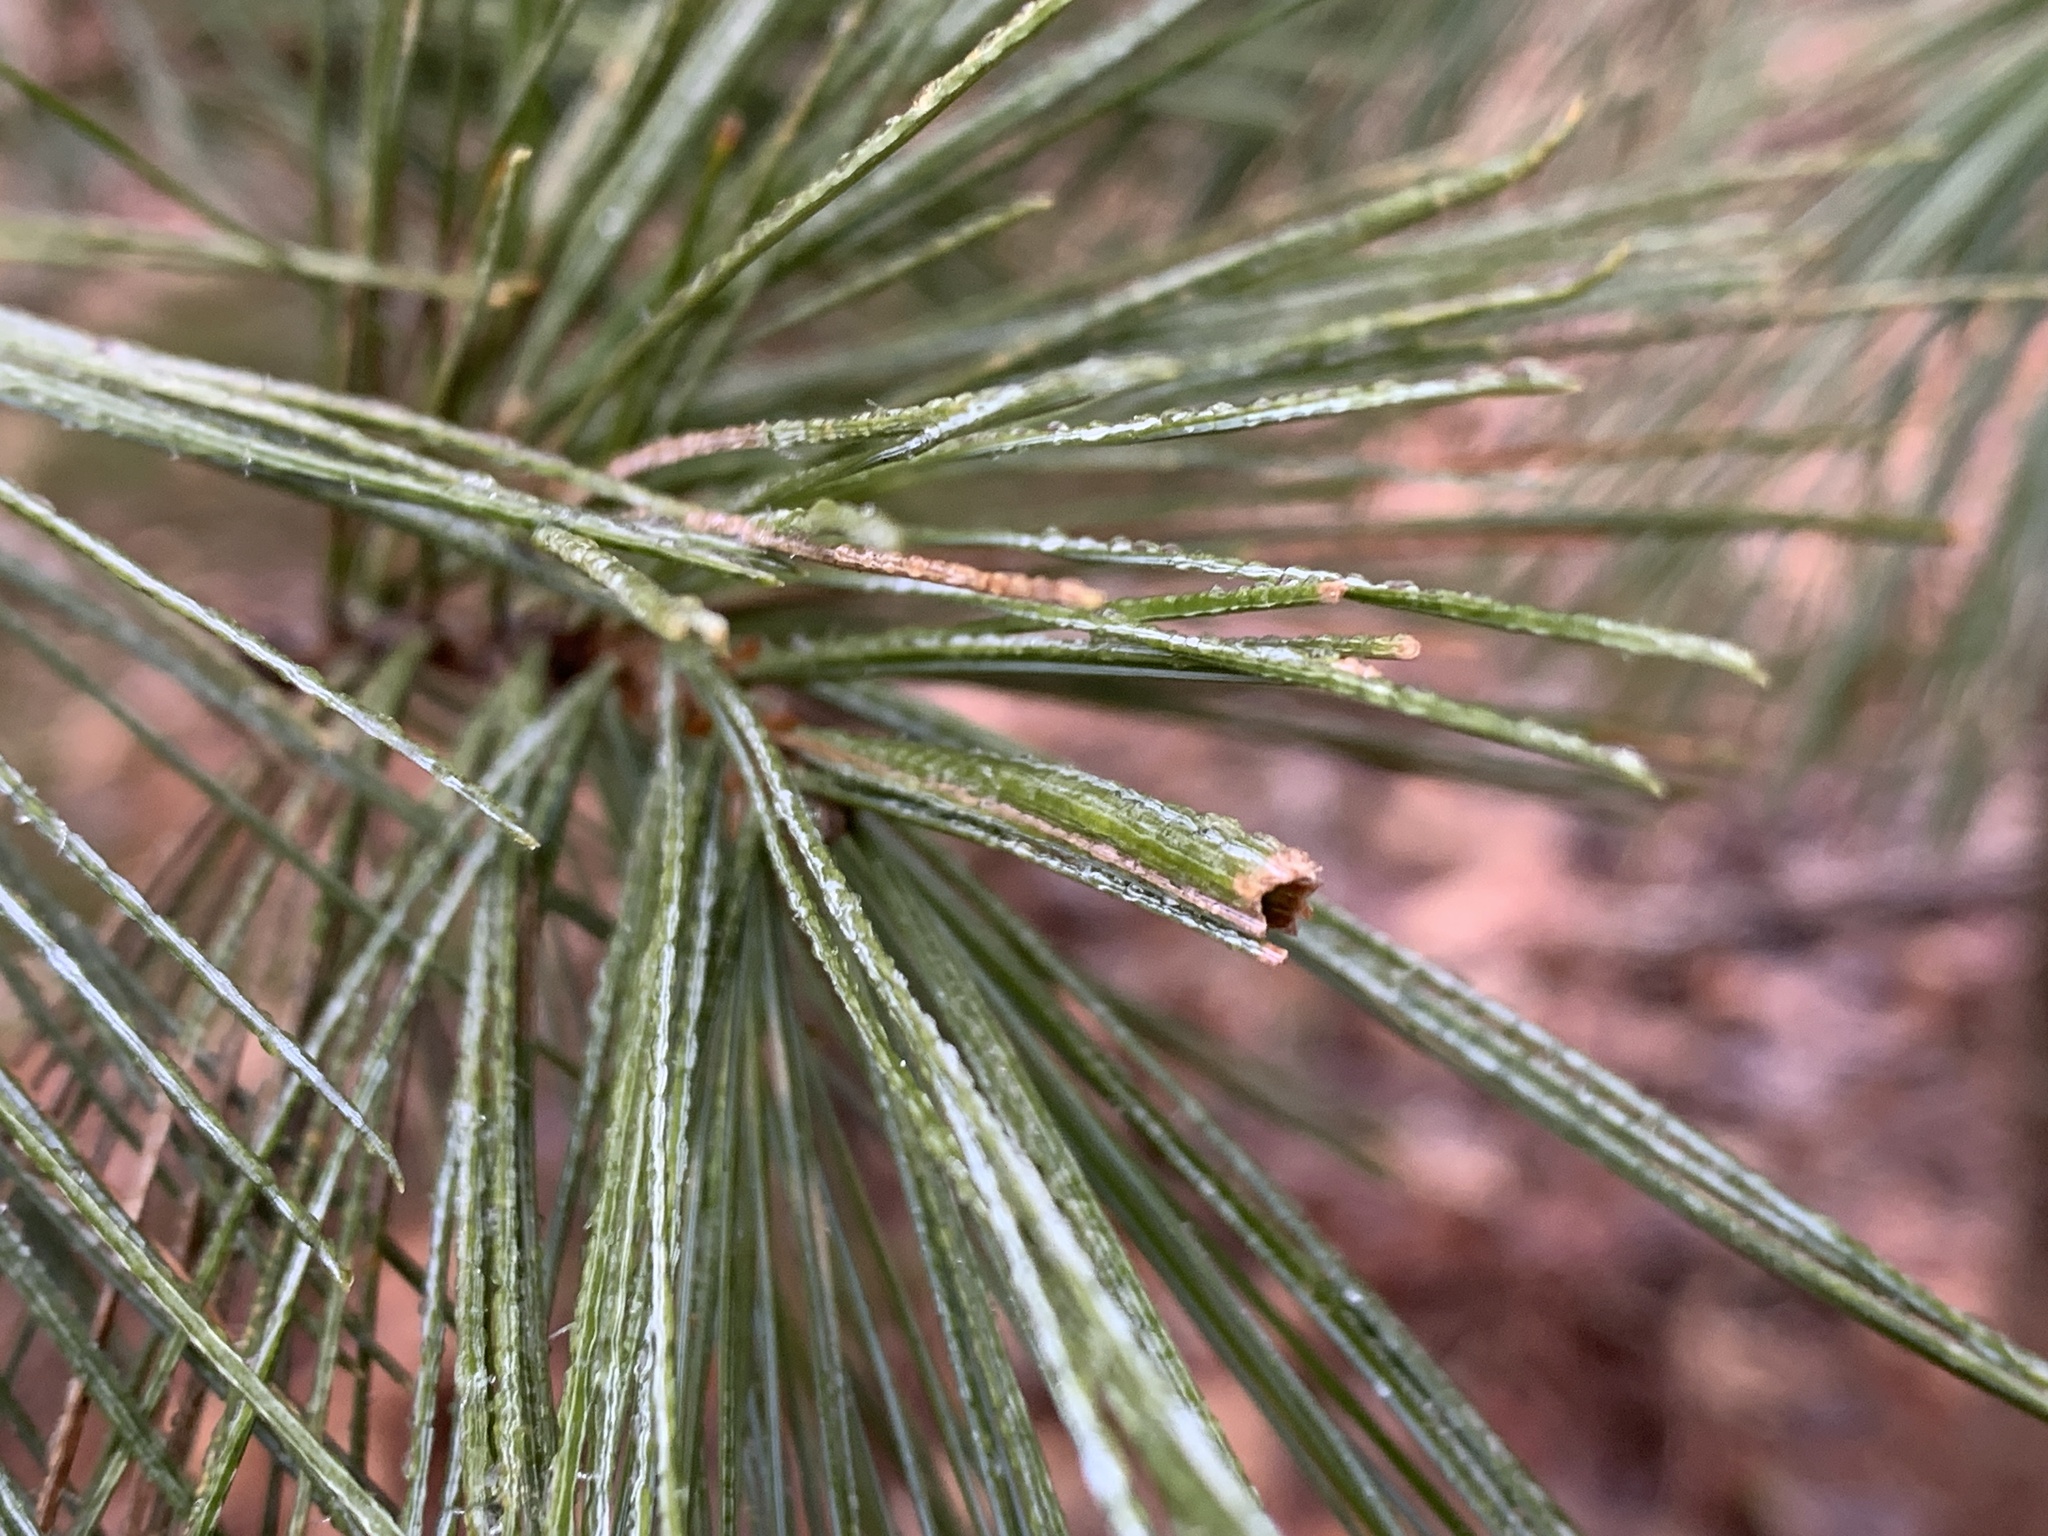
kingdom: Animalia
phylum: Arthropoda
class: Insecta
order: Lepidoptera
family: Tortricidae
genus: Argyrotaenia
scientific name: Argyrotaenia pinatubana
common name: Pine tube moth
